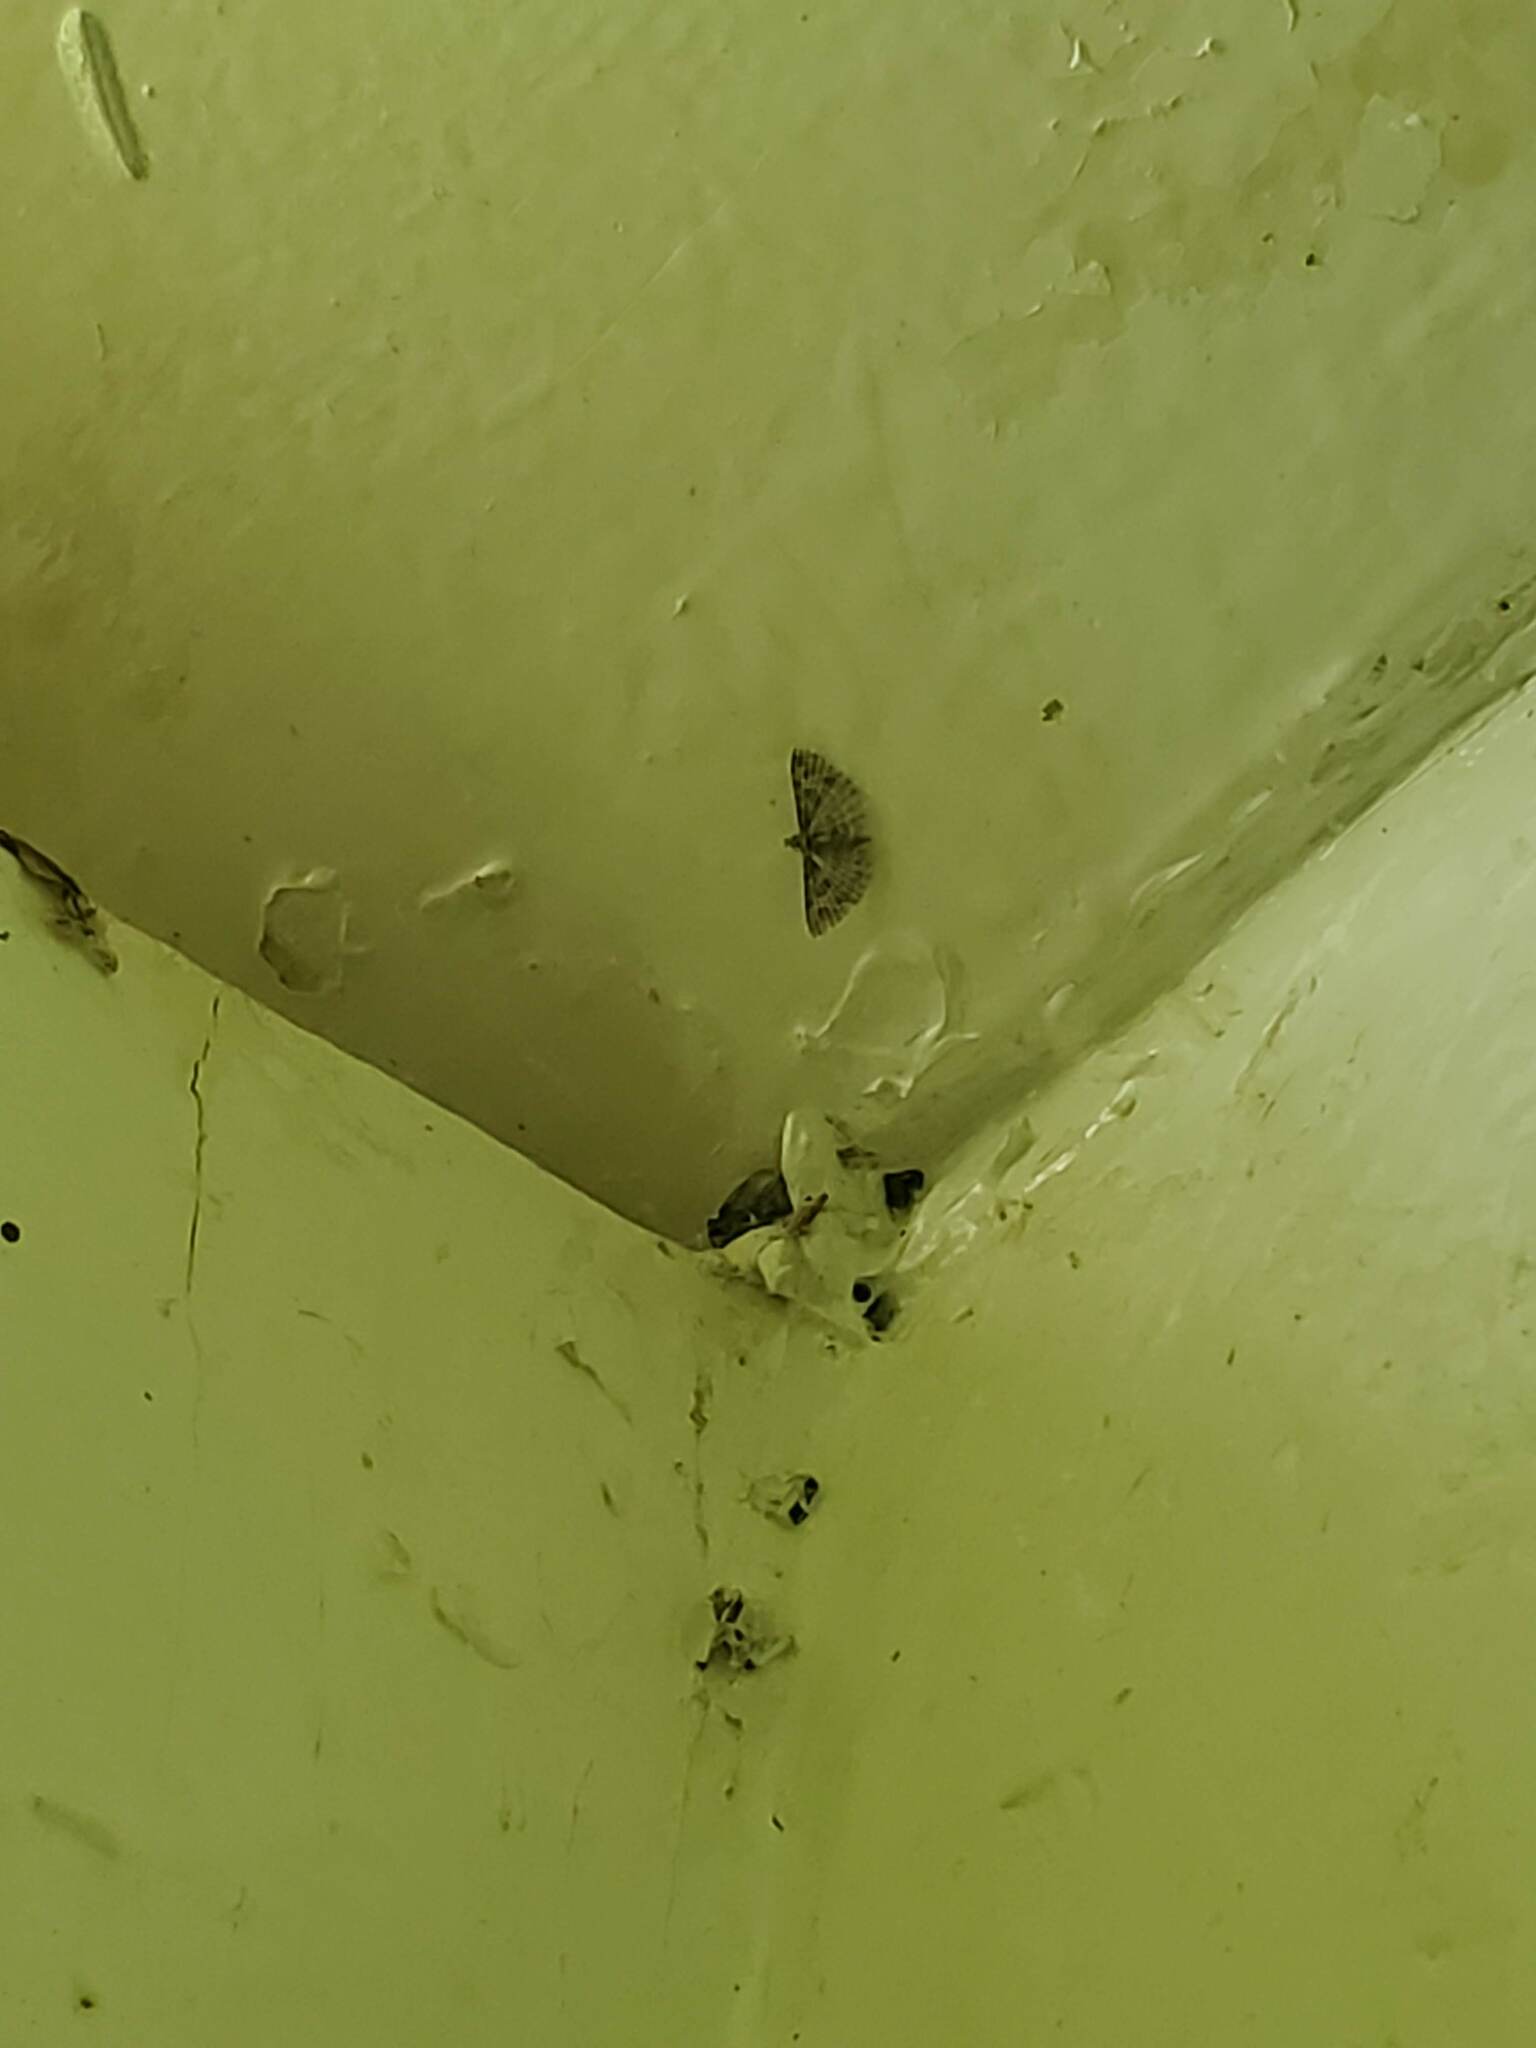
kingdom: Animalia
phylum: Arthropoda
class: Insecta
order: Lepidoptera
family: Alucitidae
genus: Alucita
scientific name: Alucita
